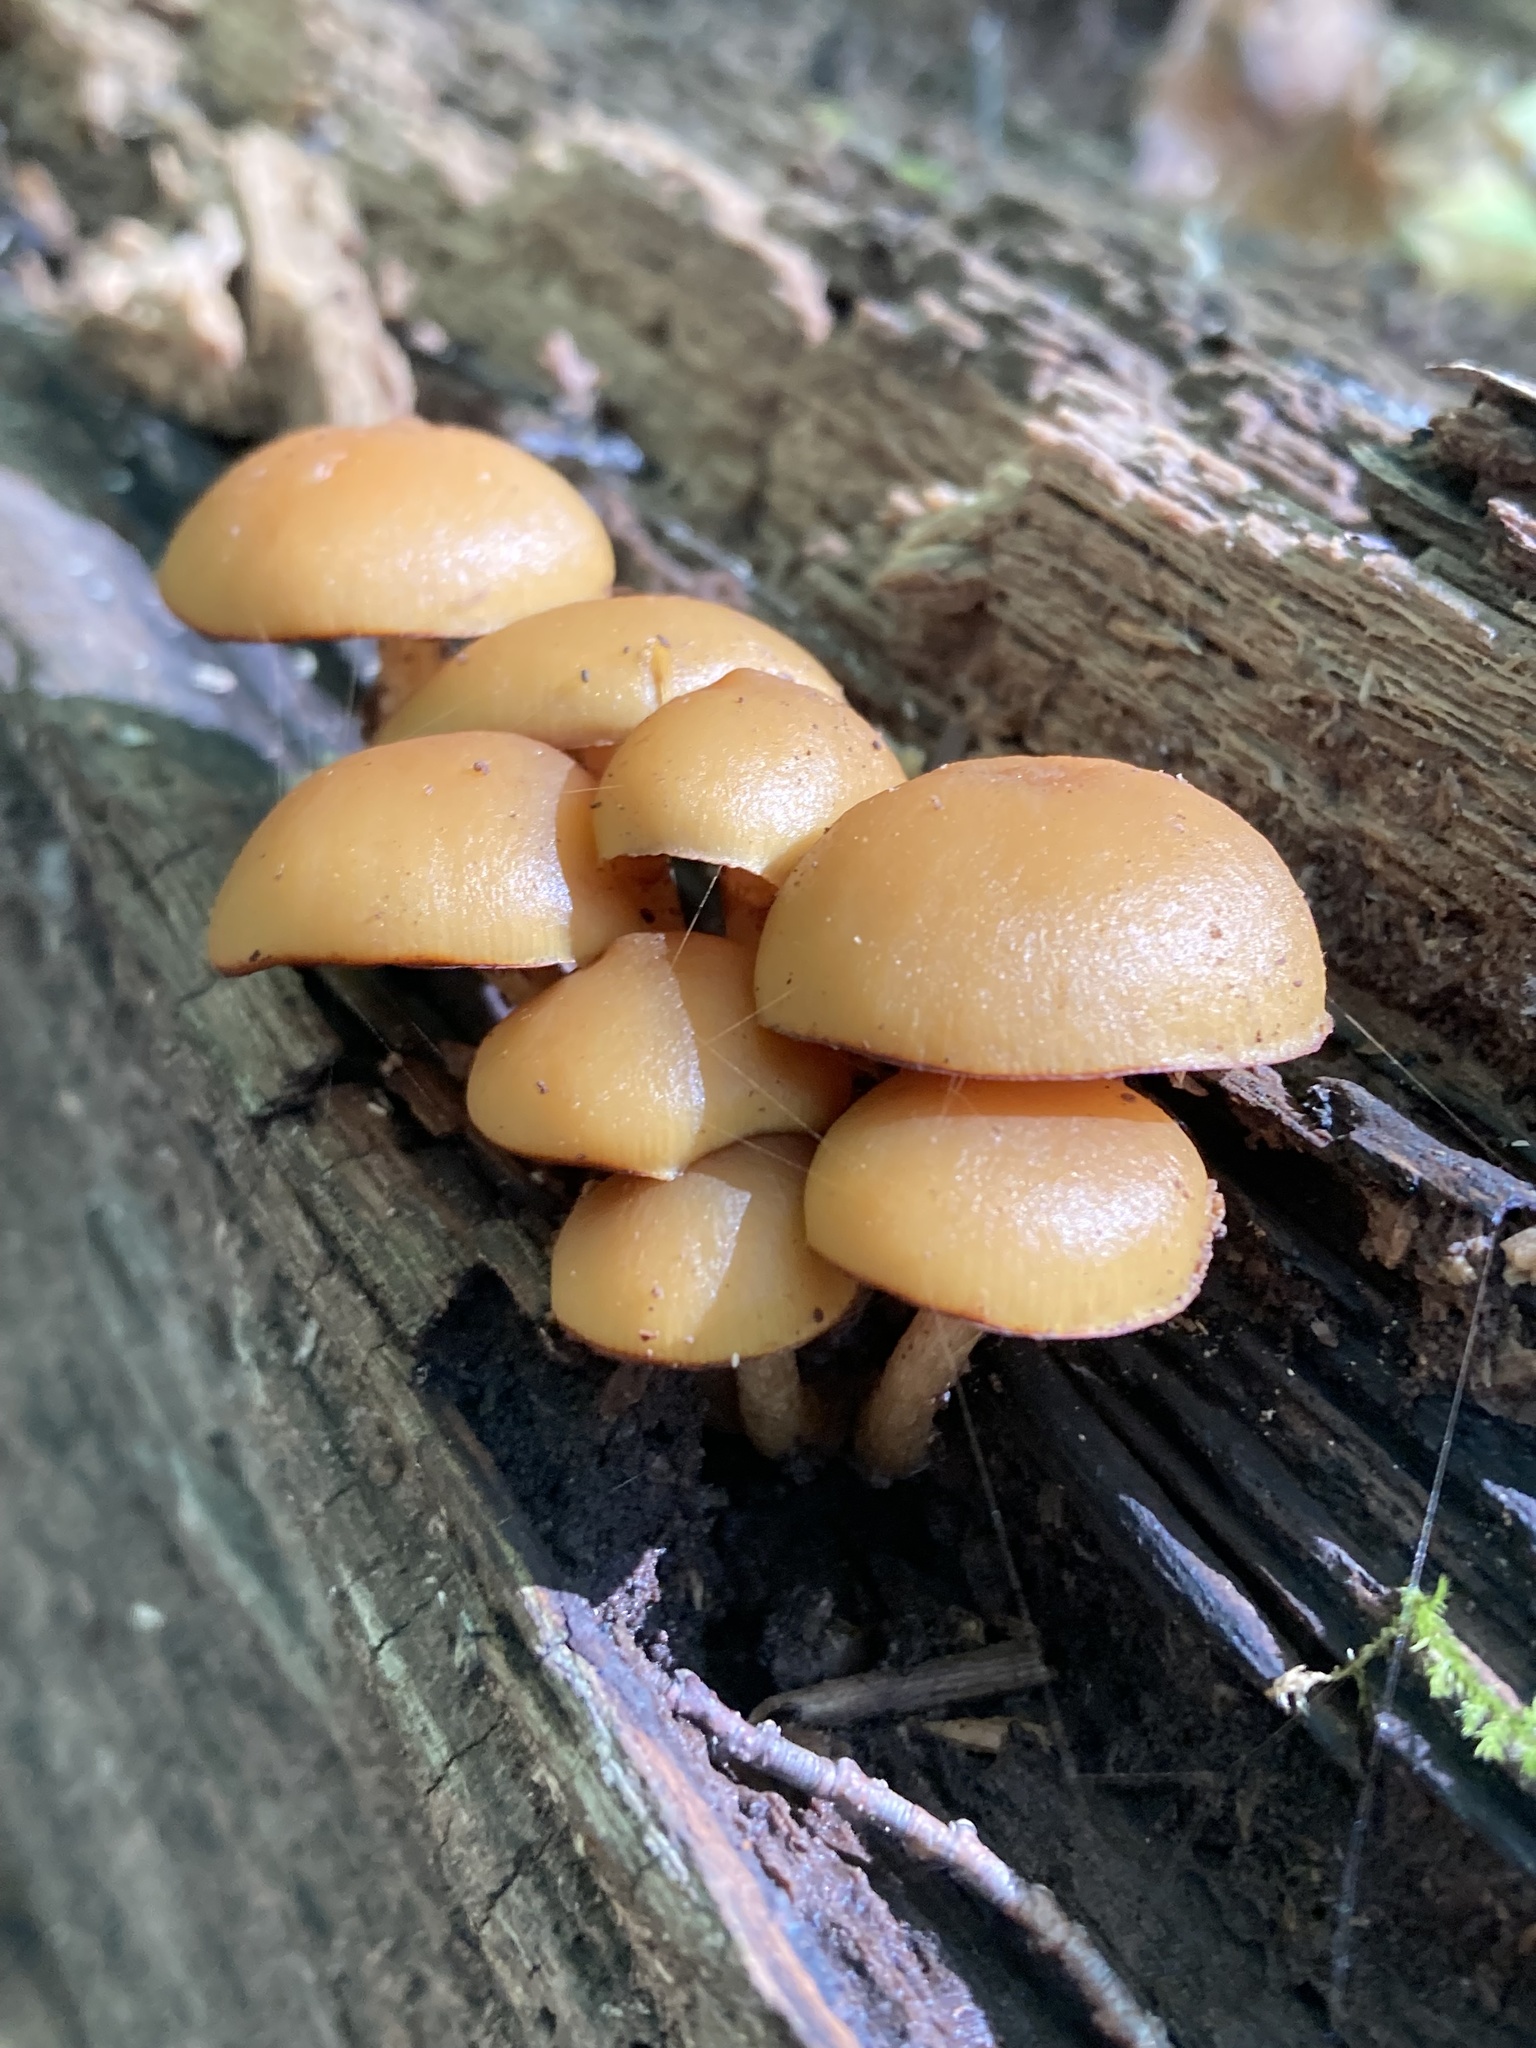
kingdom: Fungi
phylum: Basidiomycota
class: Agaricomycetes
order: Agaricales
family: Hymenogastraceae
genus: Galerina
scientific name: Galerina marginata
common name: Funeral bell
